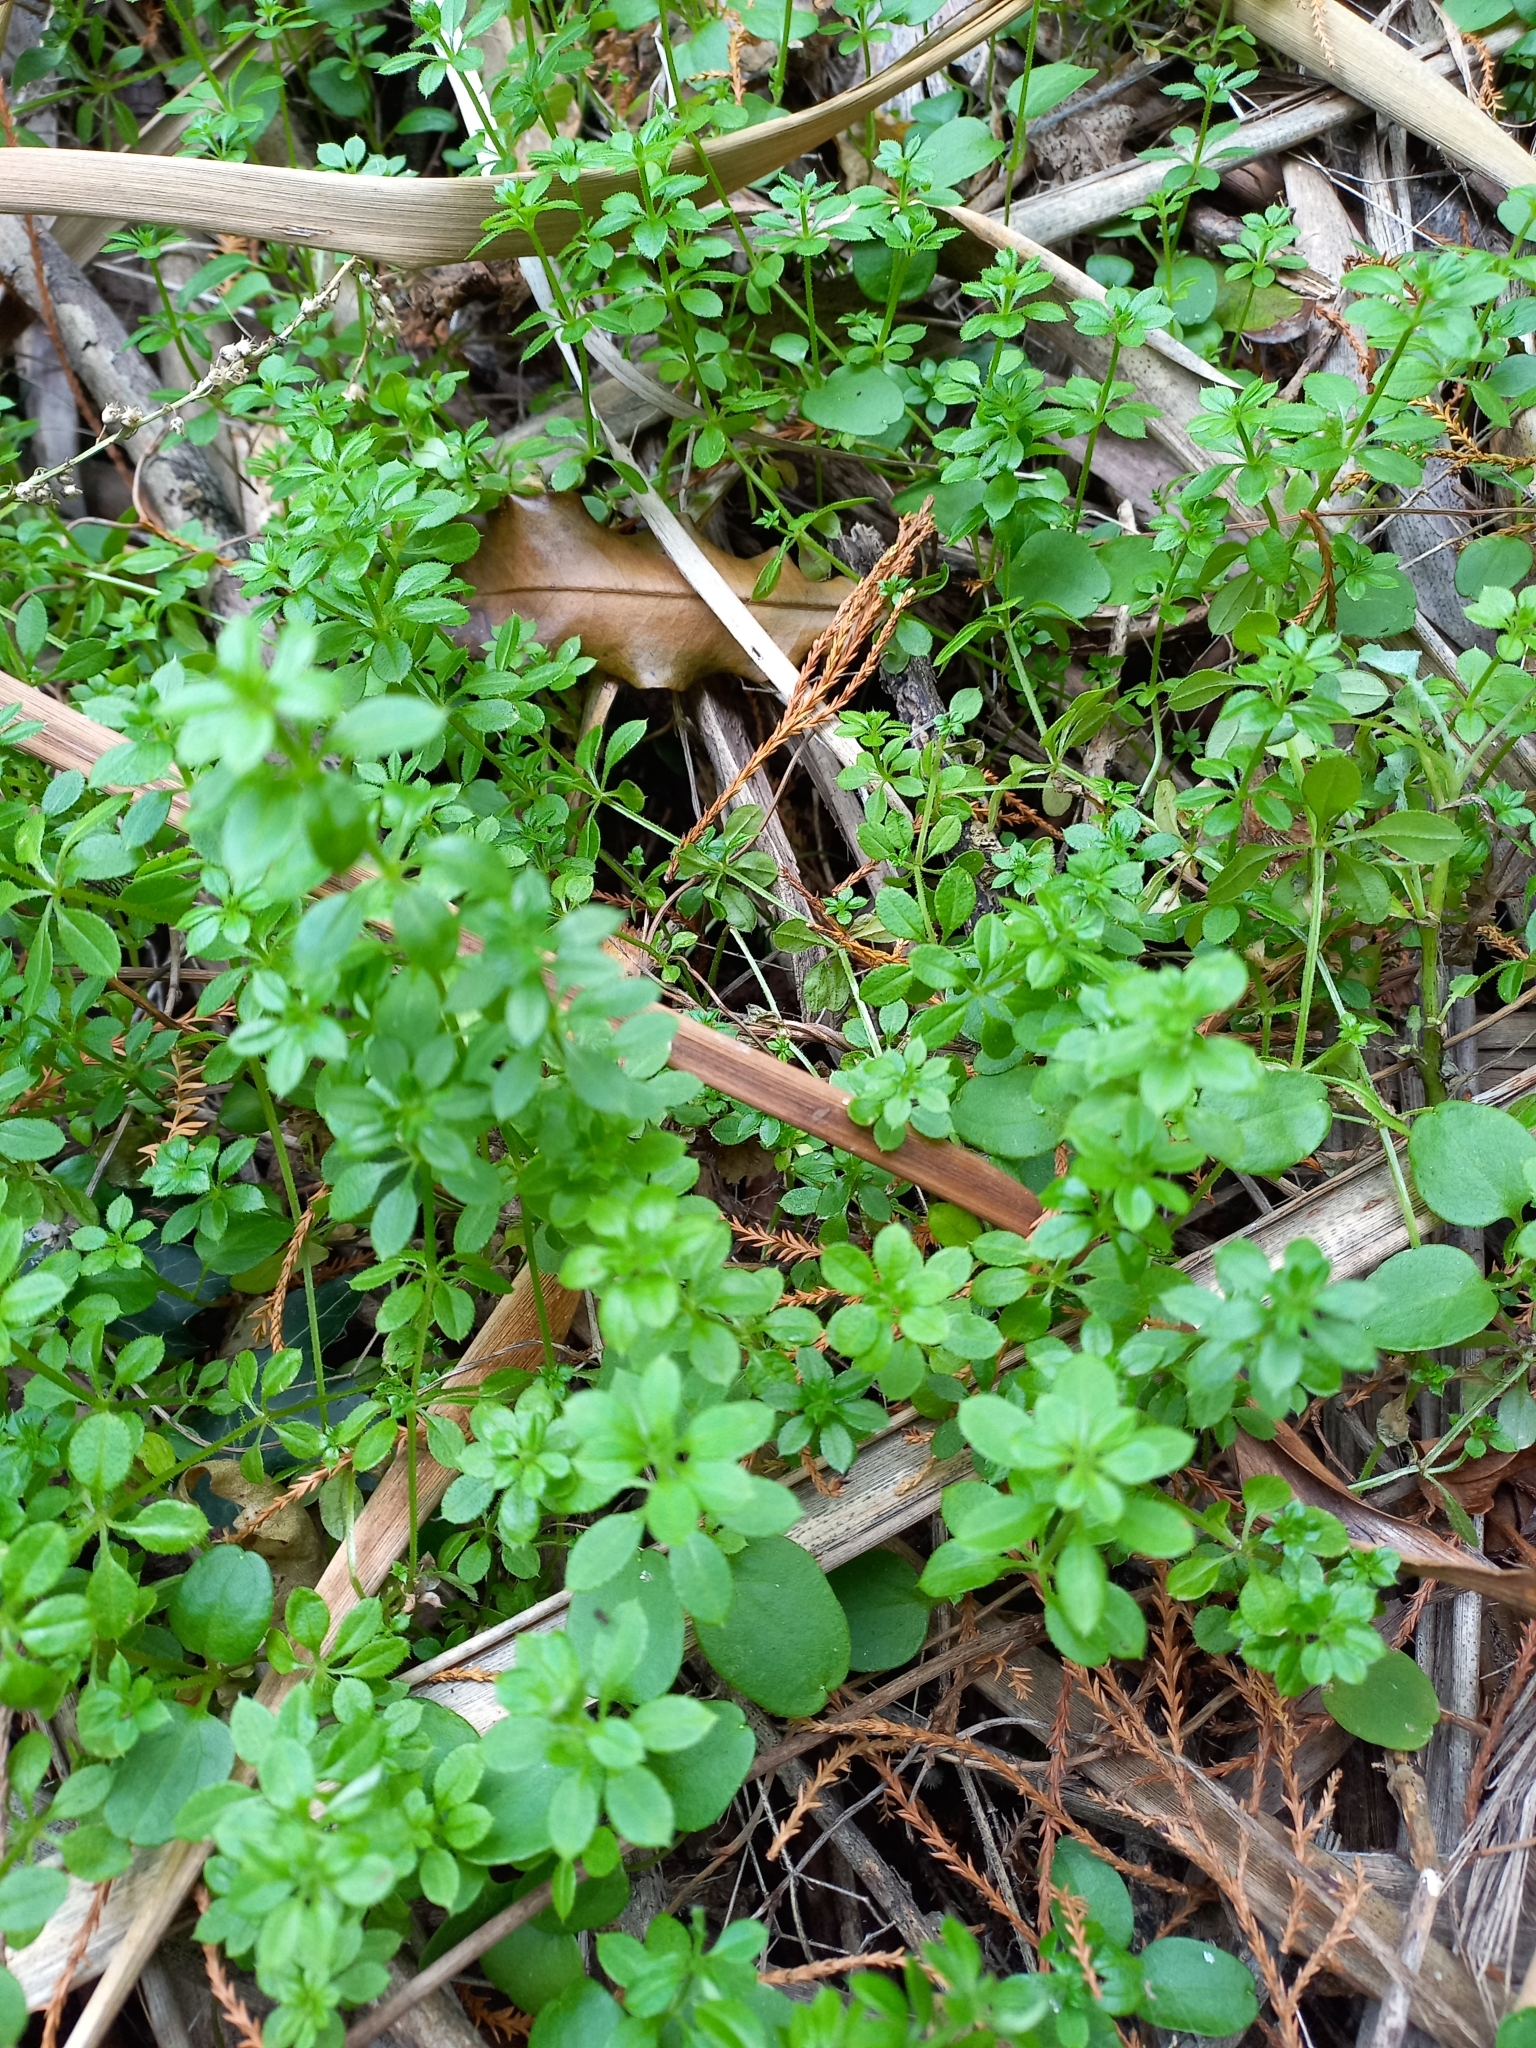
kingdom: Plantae
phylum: Tracheophyta
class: Magnoliopsida
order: Gentianales
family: Rubiaceae
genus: Galium
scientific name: Galium aparine
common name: Cleavers
